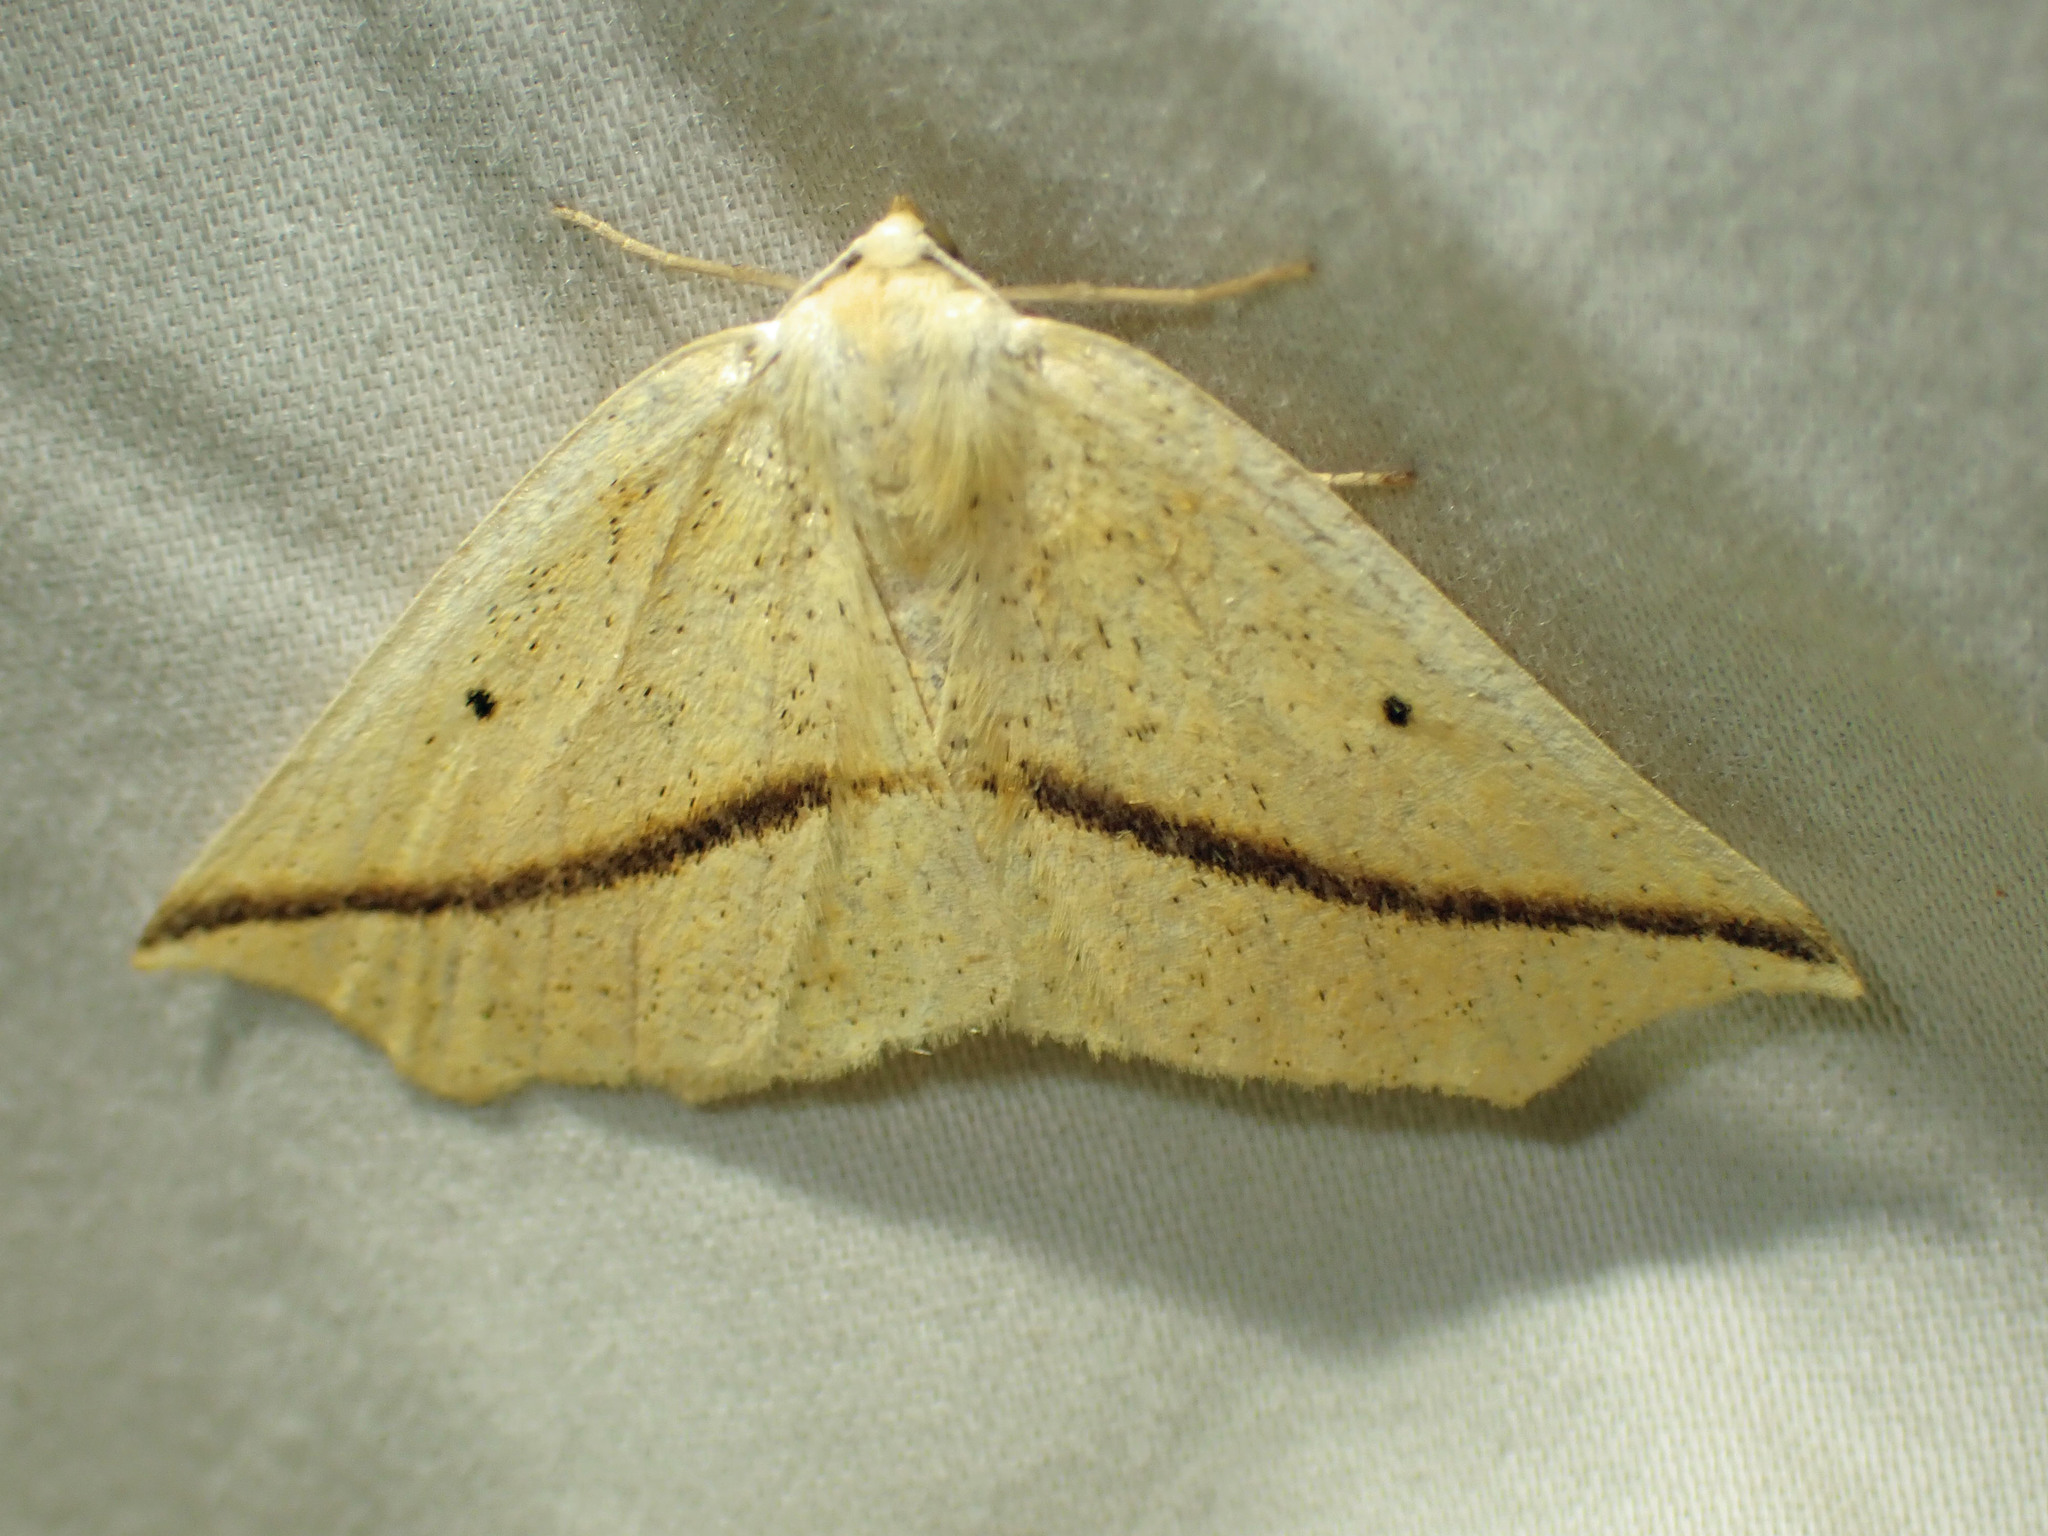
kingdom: Animalia
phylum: Arthropoda
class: Insecta
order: Lepidoptera
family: Geometridae
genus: Tetracis
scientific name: Tetracis crocallata
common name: Yellow slant-line
